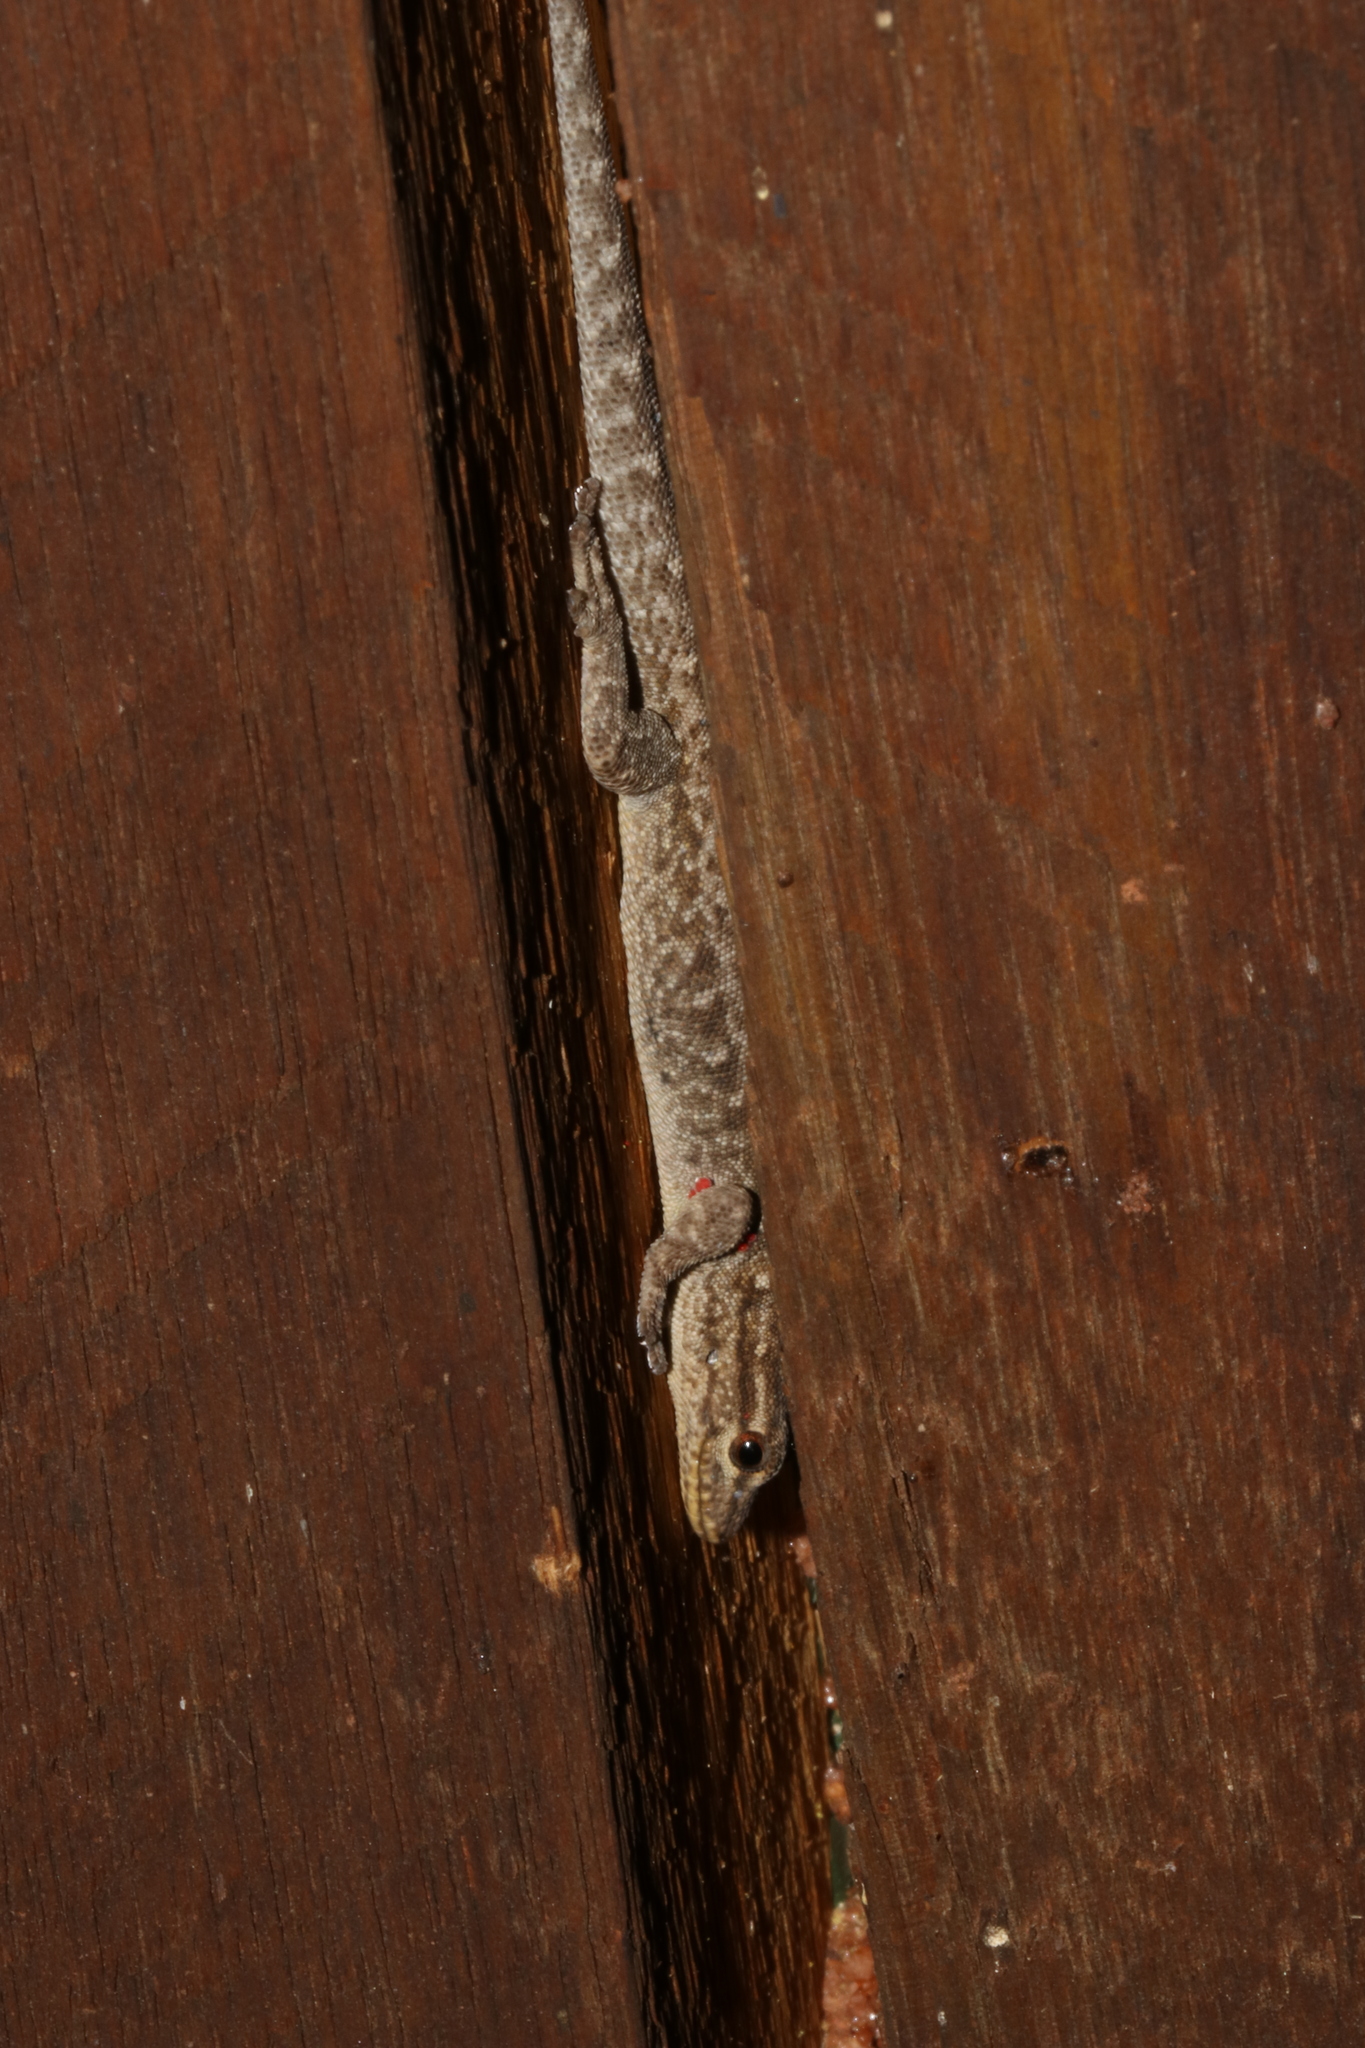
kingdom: Animalia
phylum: Chordata
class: Squamata
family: Gekkonidae
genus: Lygodactylus
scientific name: Lygodactylus incognitus
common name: Cryptic dwarf gecko
